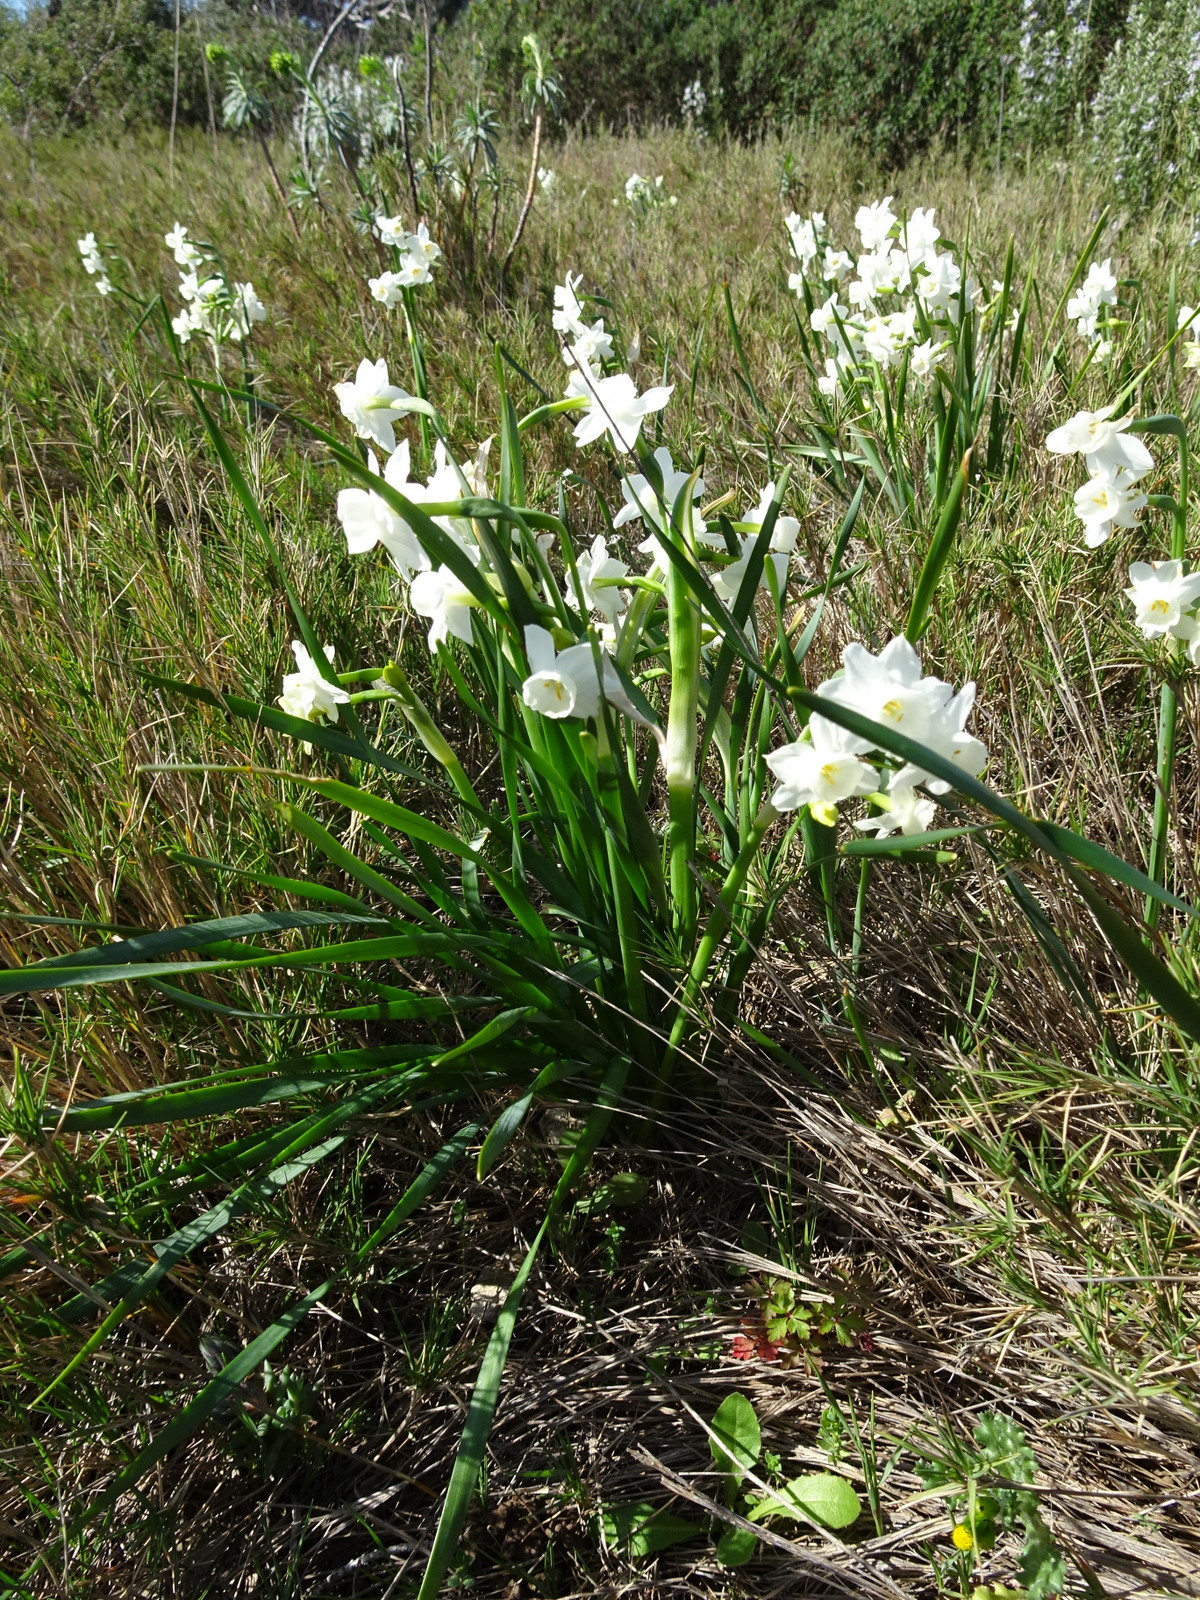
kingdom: Plantae
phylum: Tracheophyta
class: Liliopsida
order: Asparagales
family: Amaryllidaceae
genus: Narcissus
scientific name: Narcissus dubius
